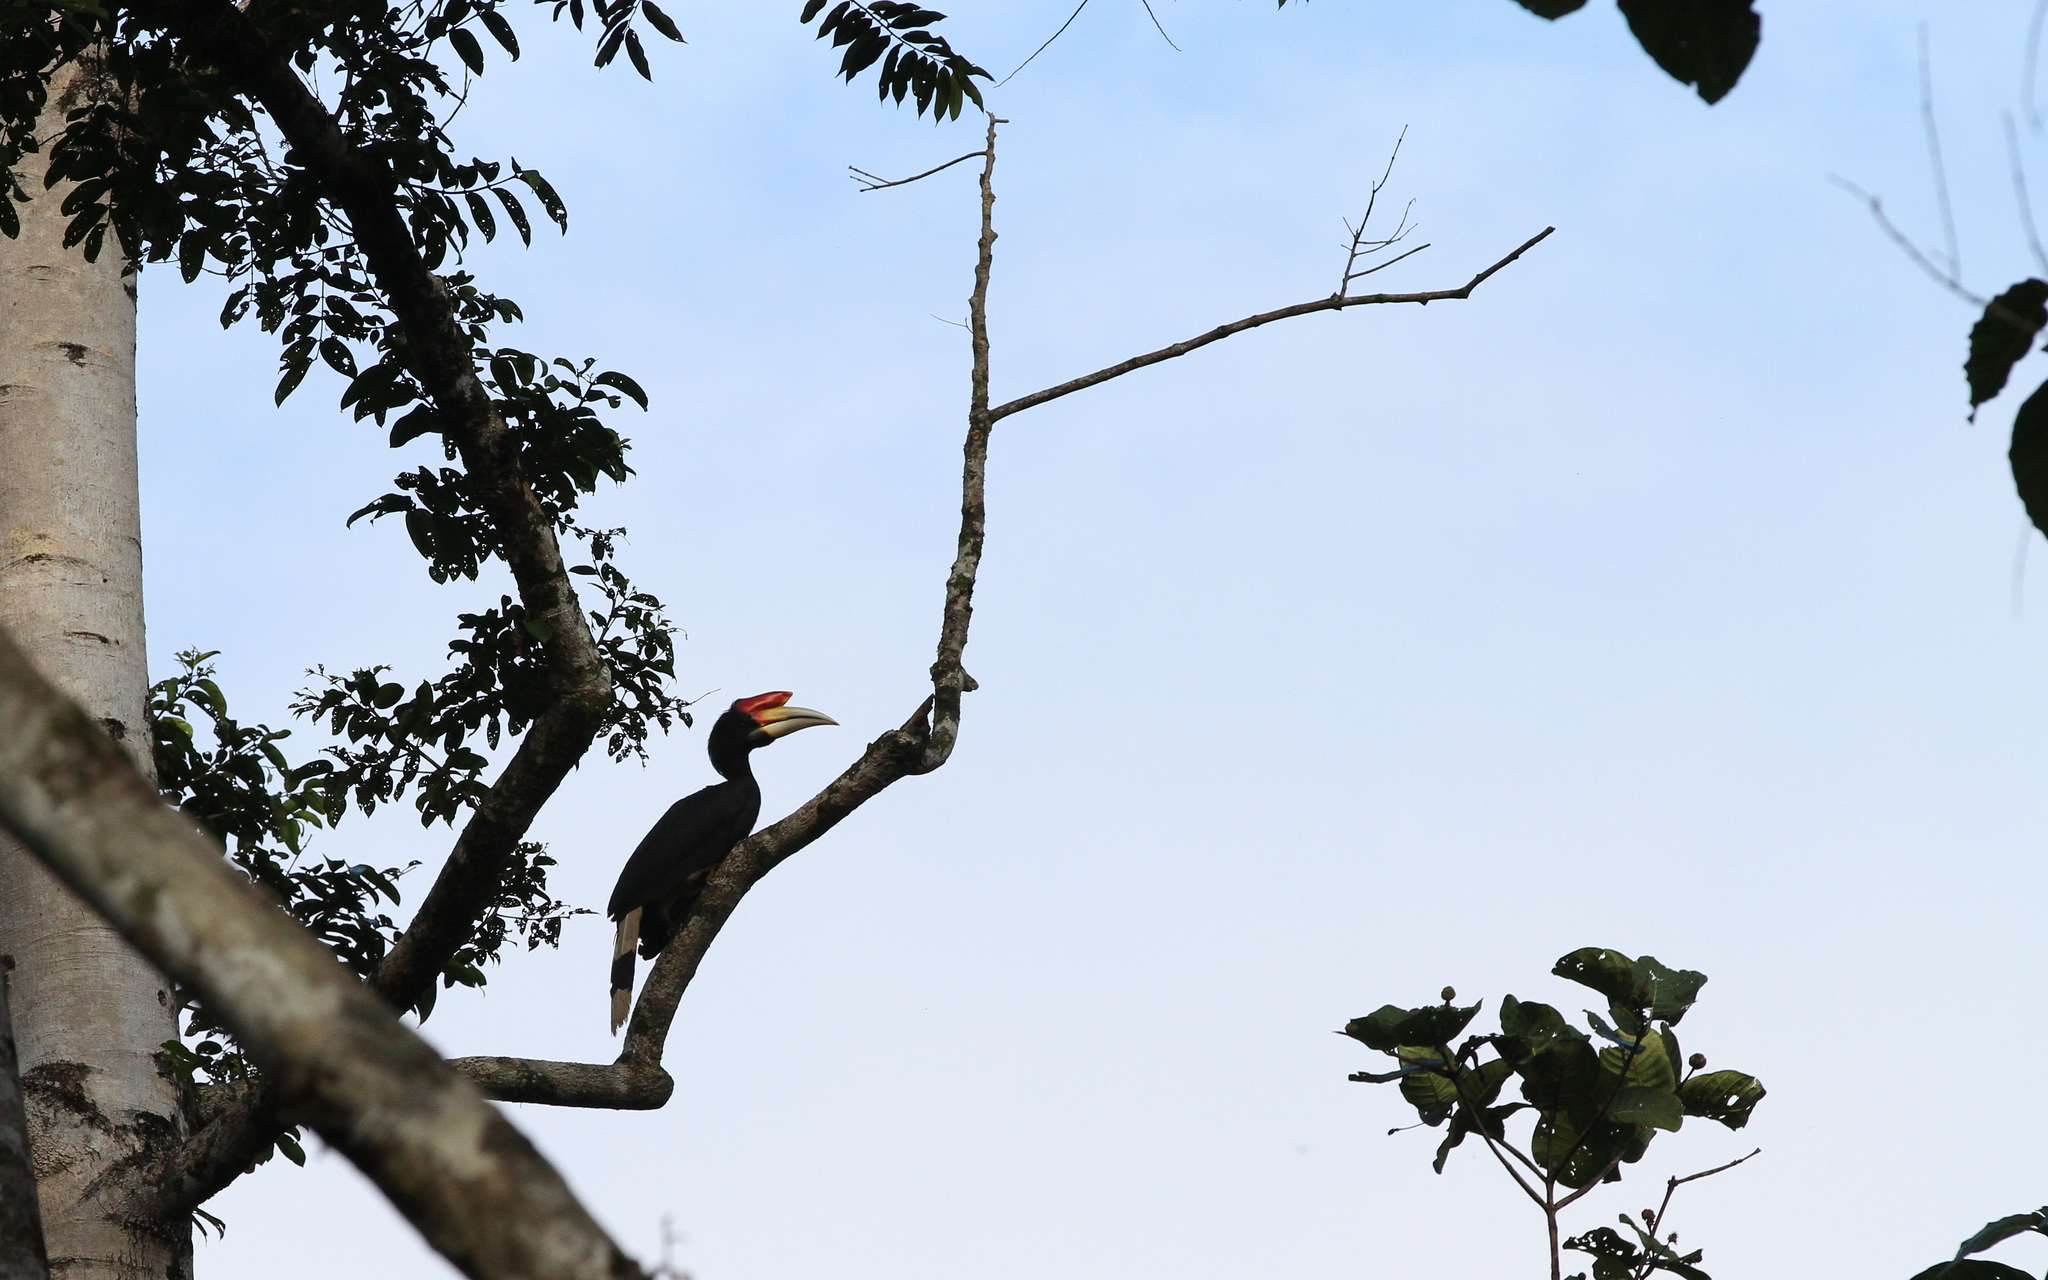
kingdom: Animalia
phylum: Chordata
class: Aves
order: Bucerotiformes
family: Bucerotidae
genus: Buceros
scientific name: Buceros rhinoceros
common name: Rhinoceros hornbill
